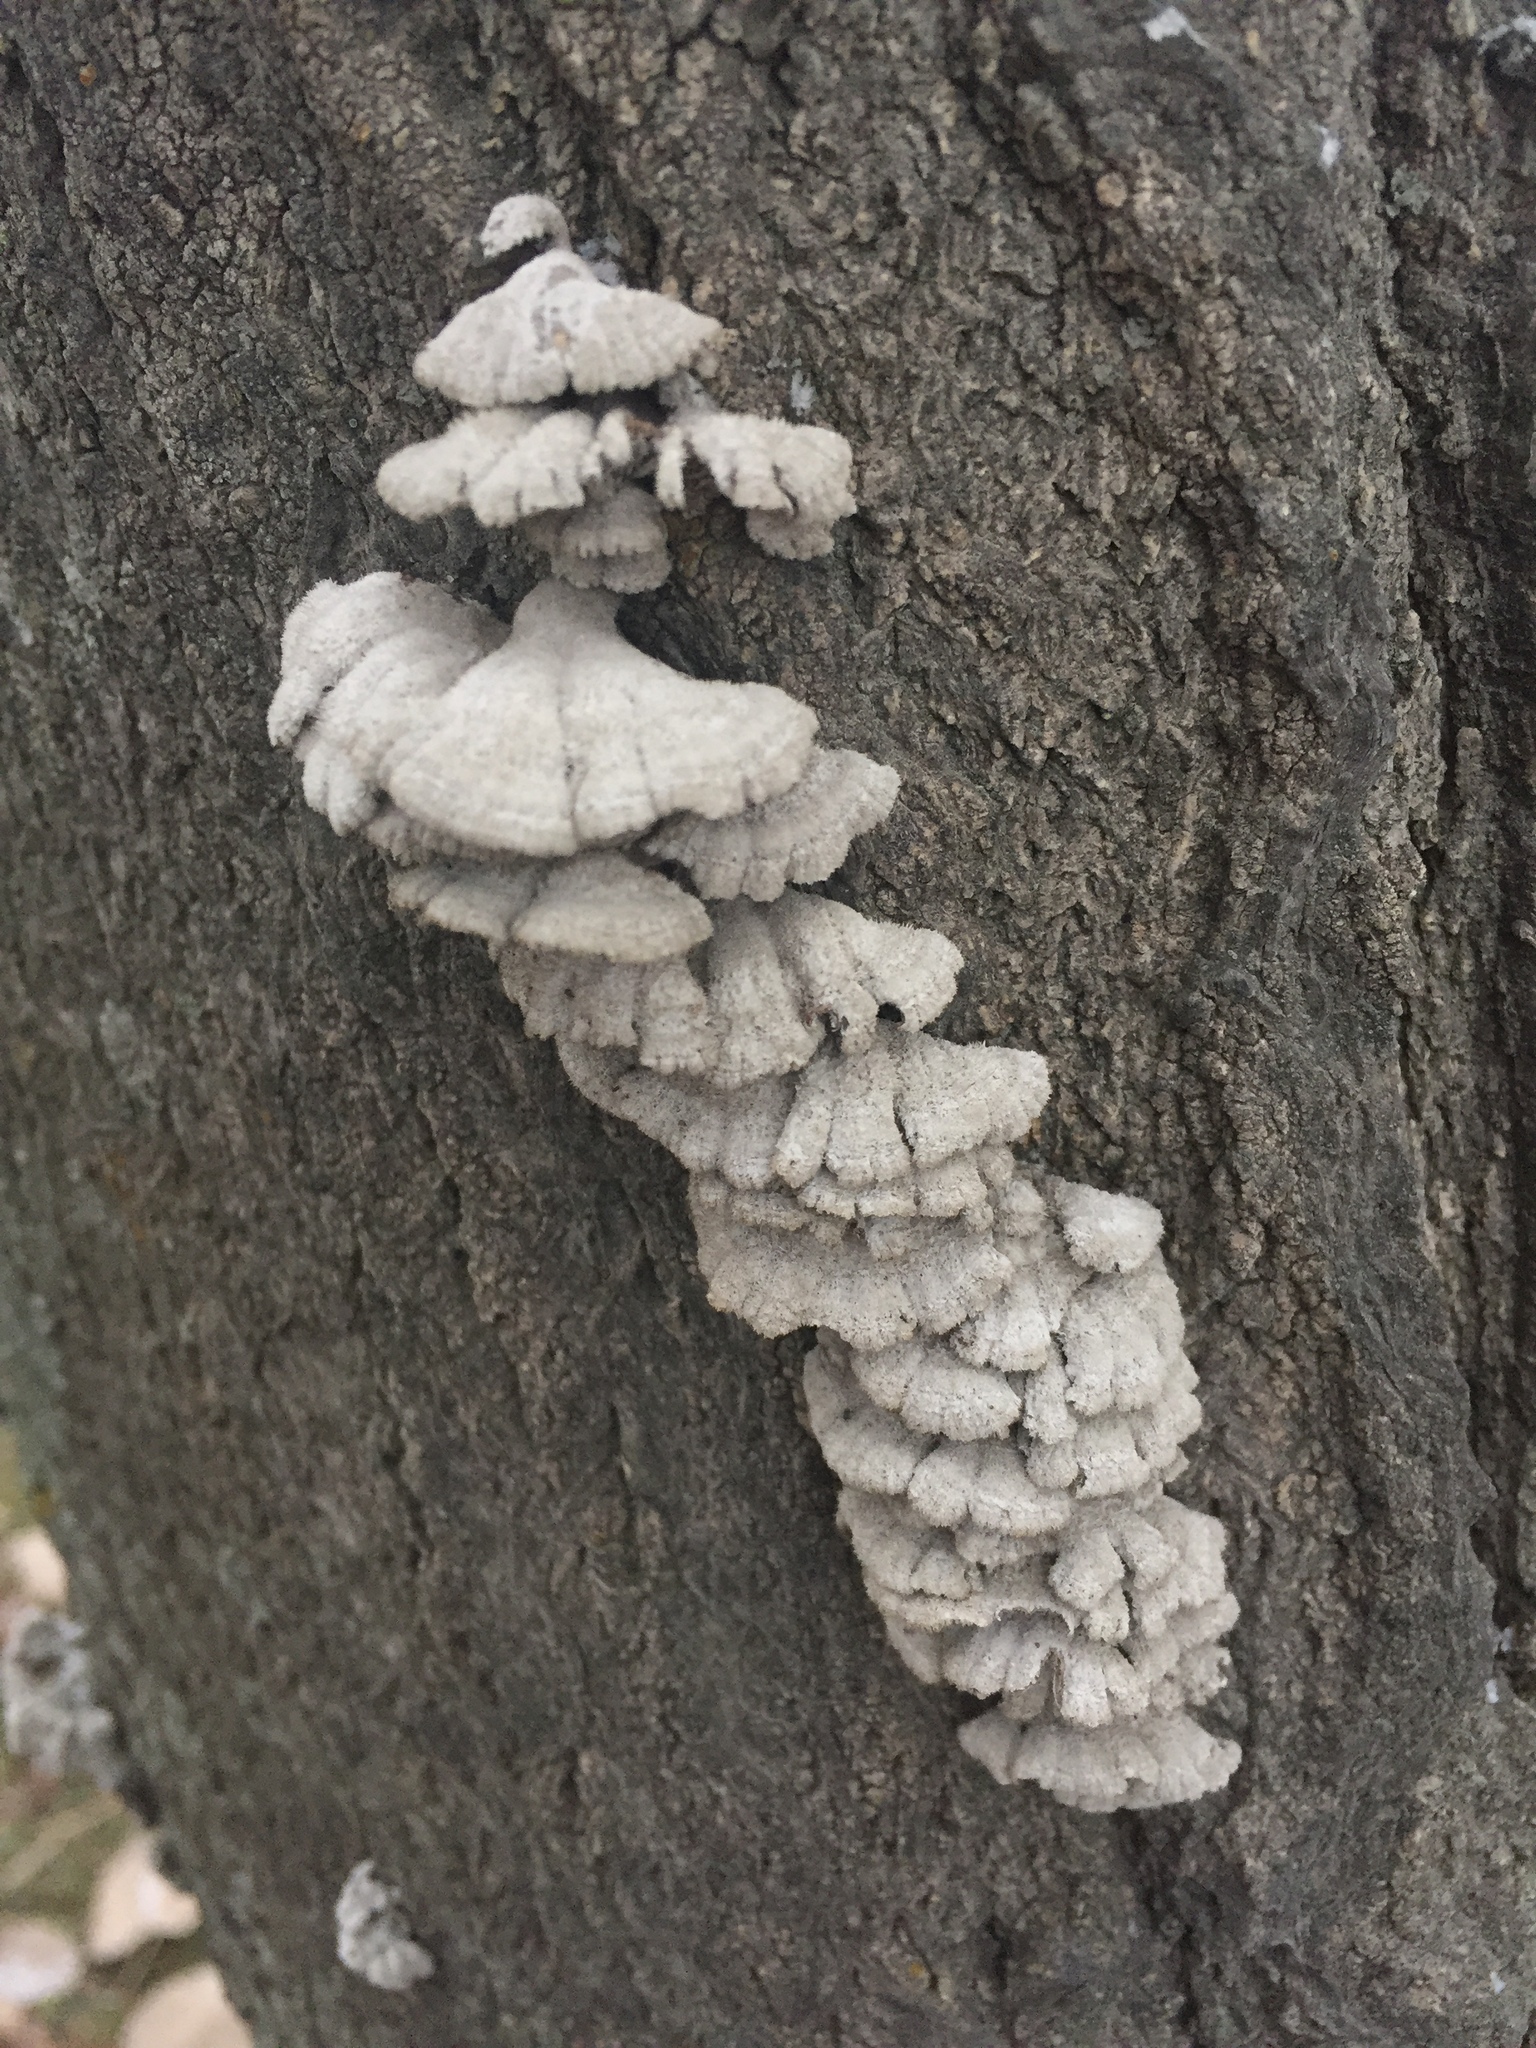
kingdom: Fungi
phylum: Basidiomycota
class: Agaricomycetes
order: Agaricales
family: Schizophyllaceae
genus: Schizophyllum
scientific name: Schizophyllum commune
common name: Common porecrust
